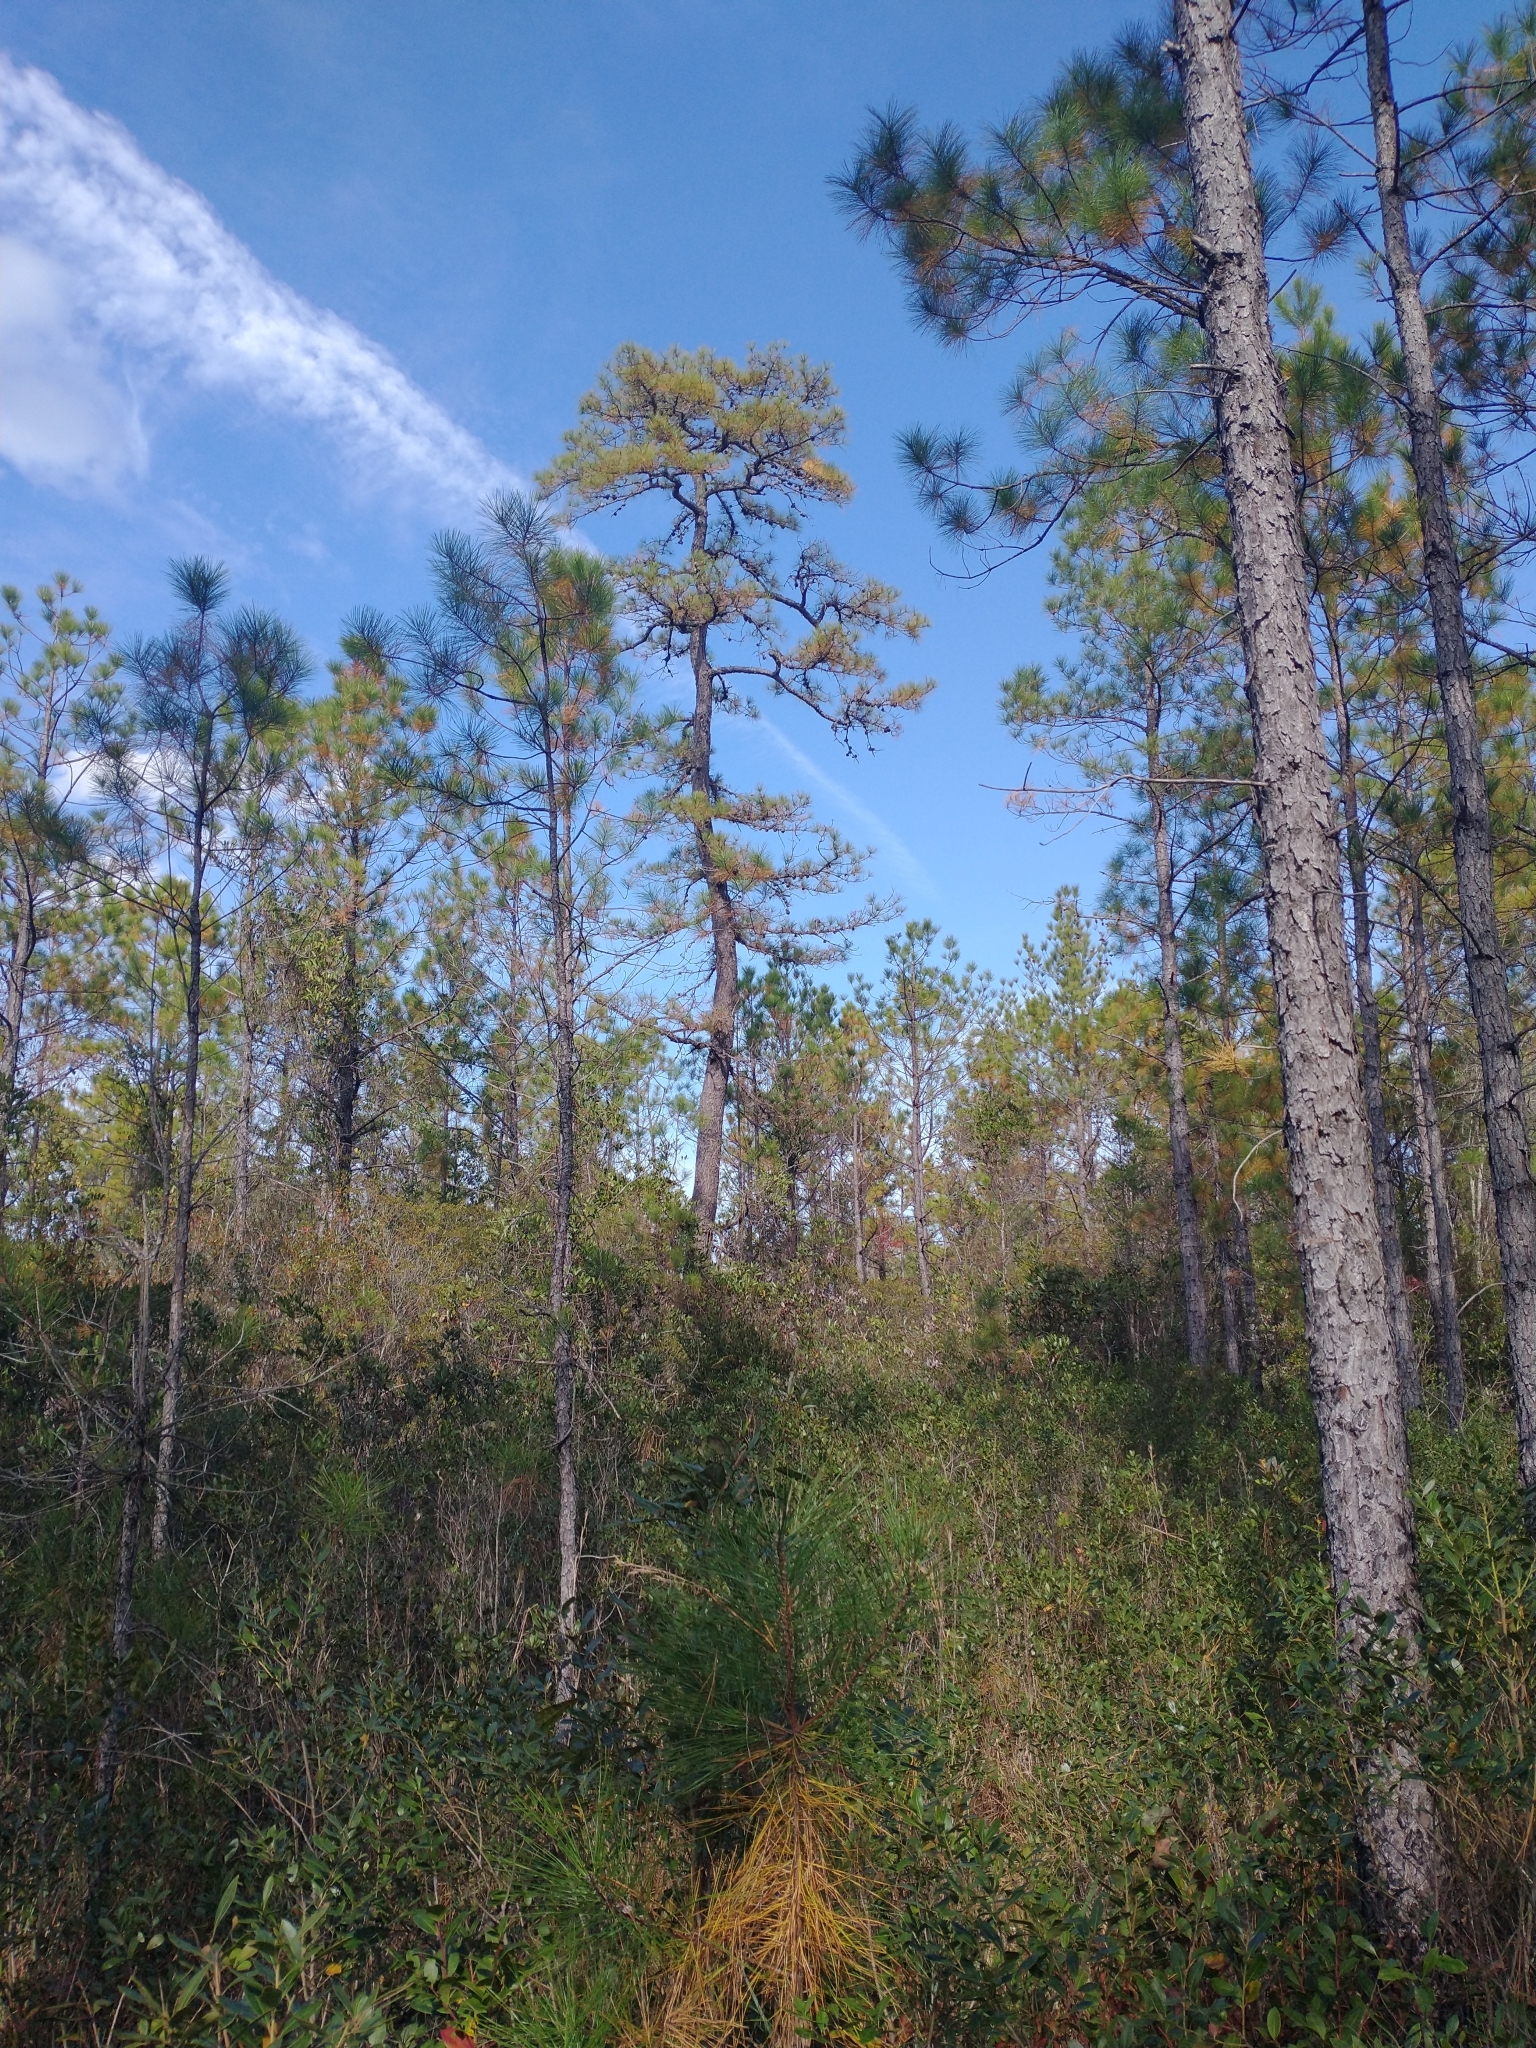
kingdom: Plantae
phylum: Tracheophyta
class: Pinopsida
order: Pinales
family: Pinaceae
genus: Pinus
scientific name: Pinus serotina
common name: Marsh pine
